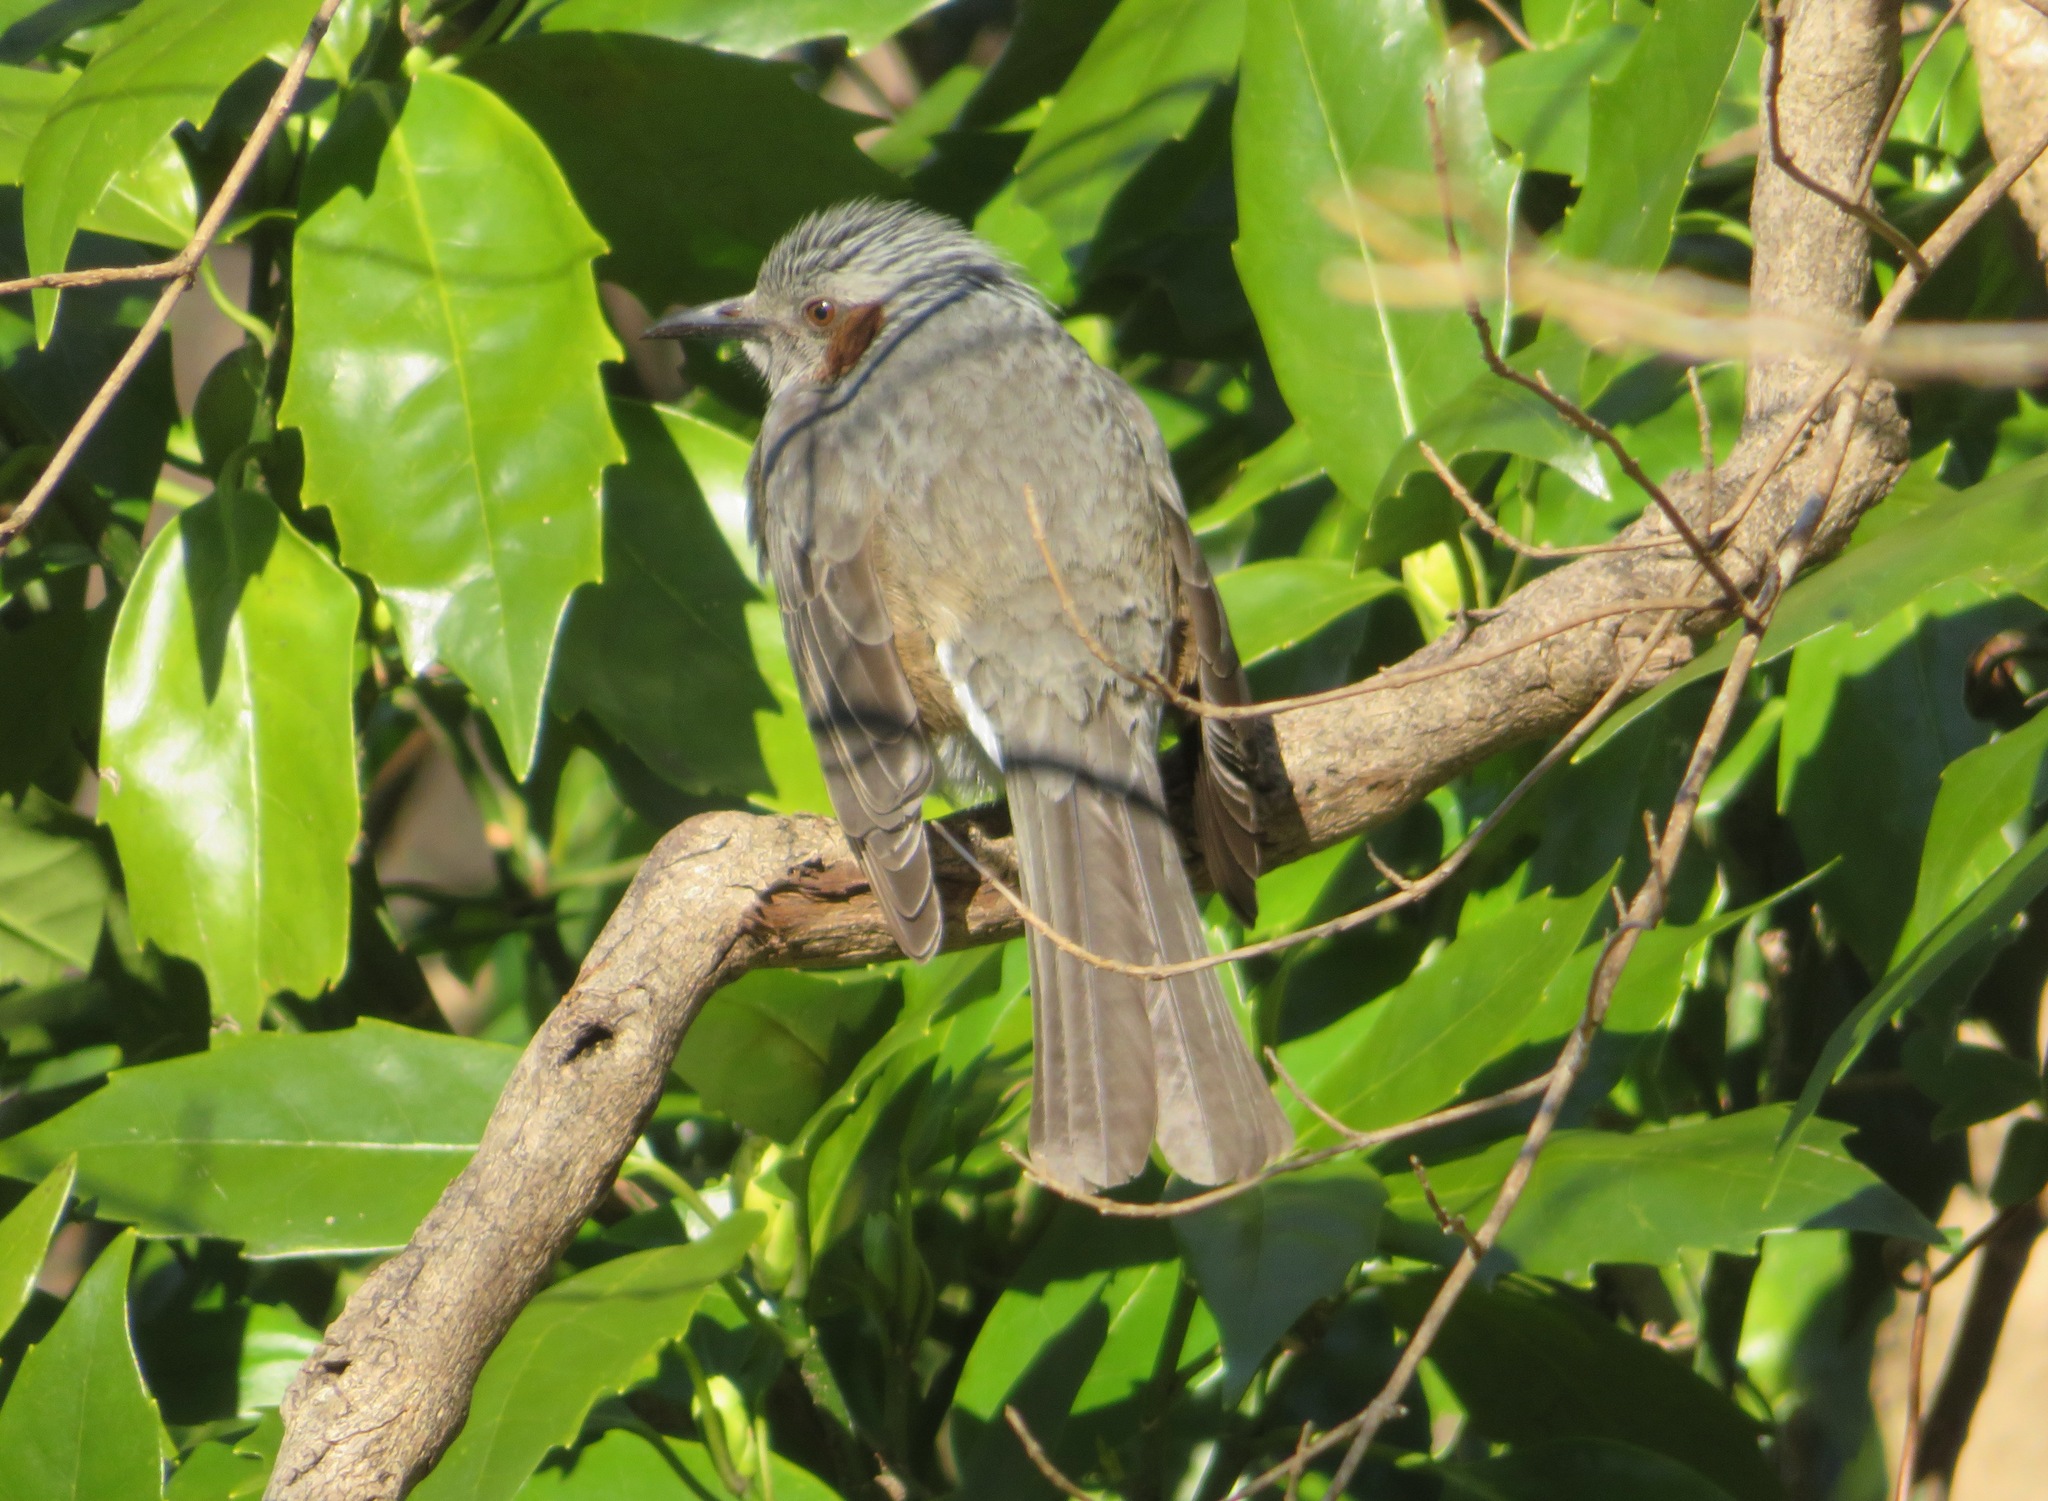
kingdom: Animalia
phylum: Chordata
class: Aves
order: Passeriformes
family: Pycnonotidae
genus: Hypsipetes
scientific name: Hypsipetes amaurotis
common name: Brown-eared bulbul
